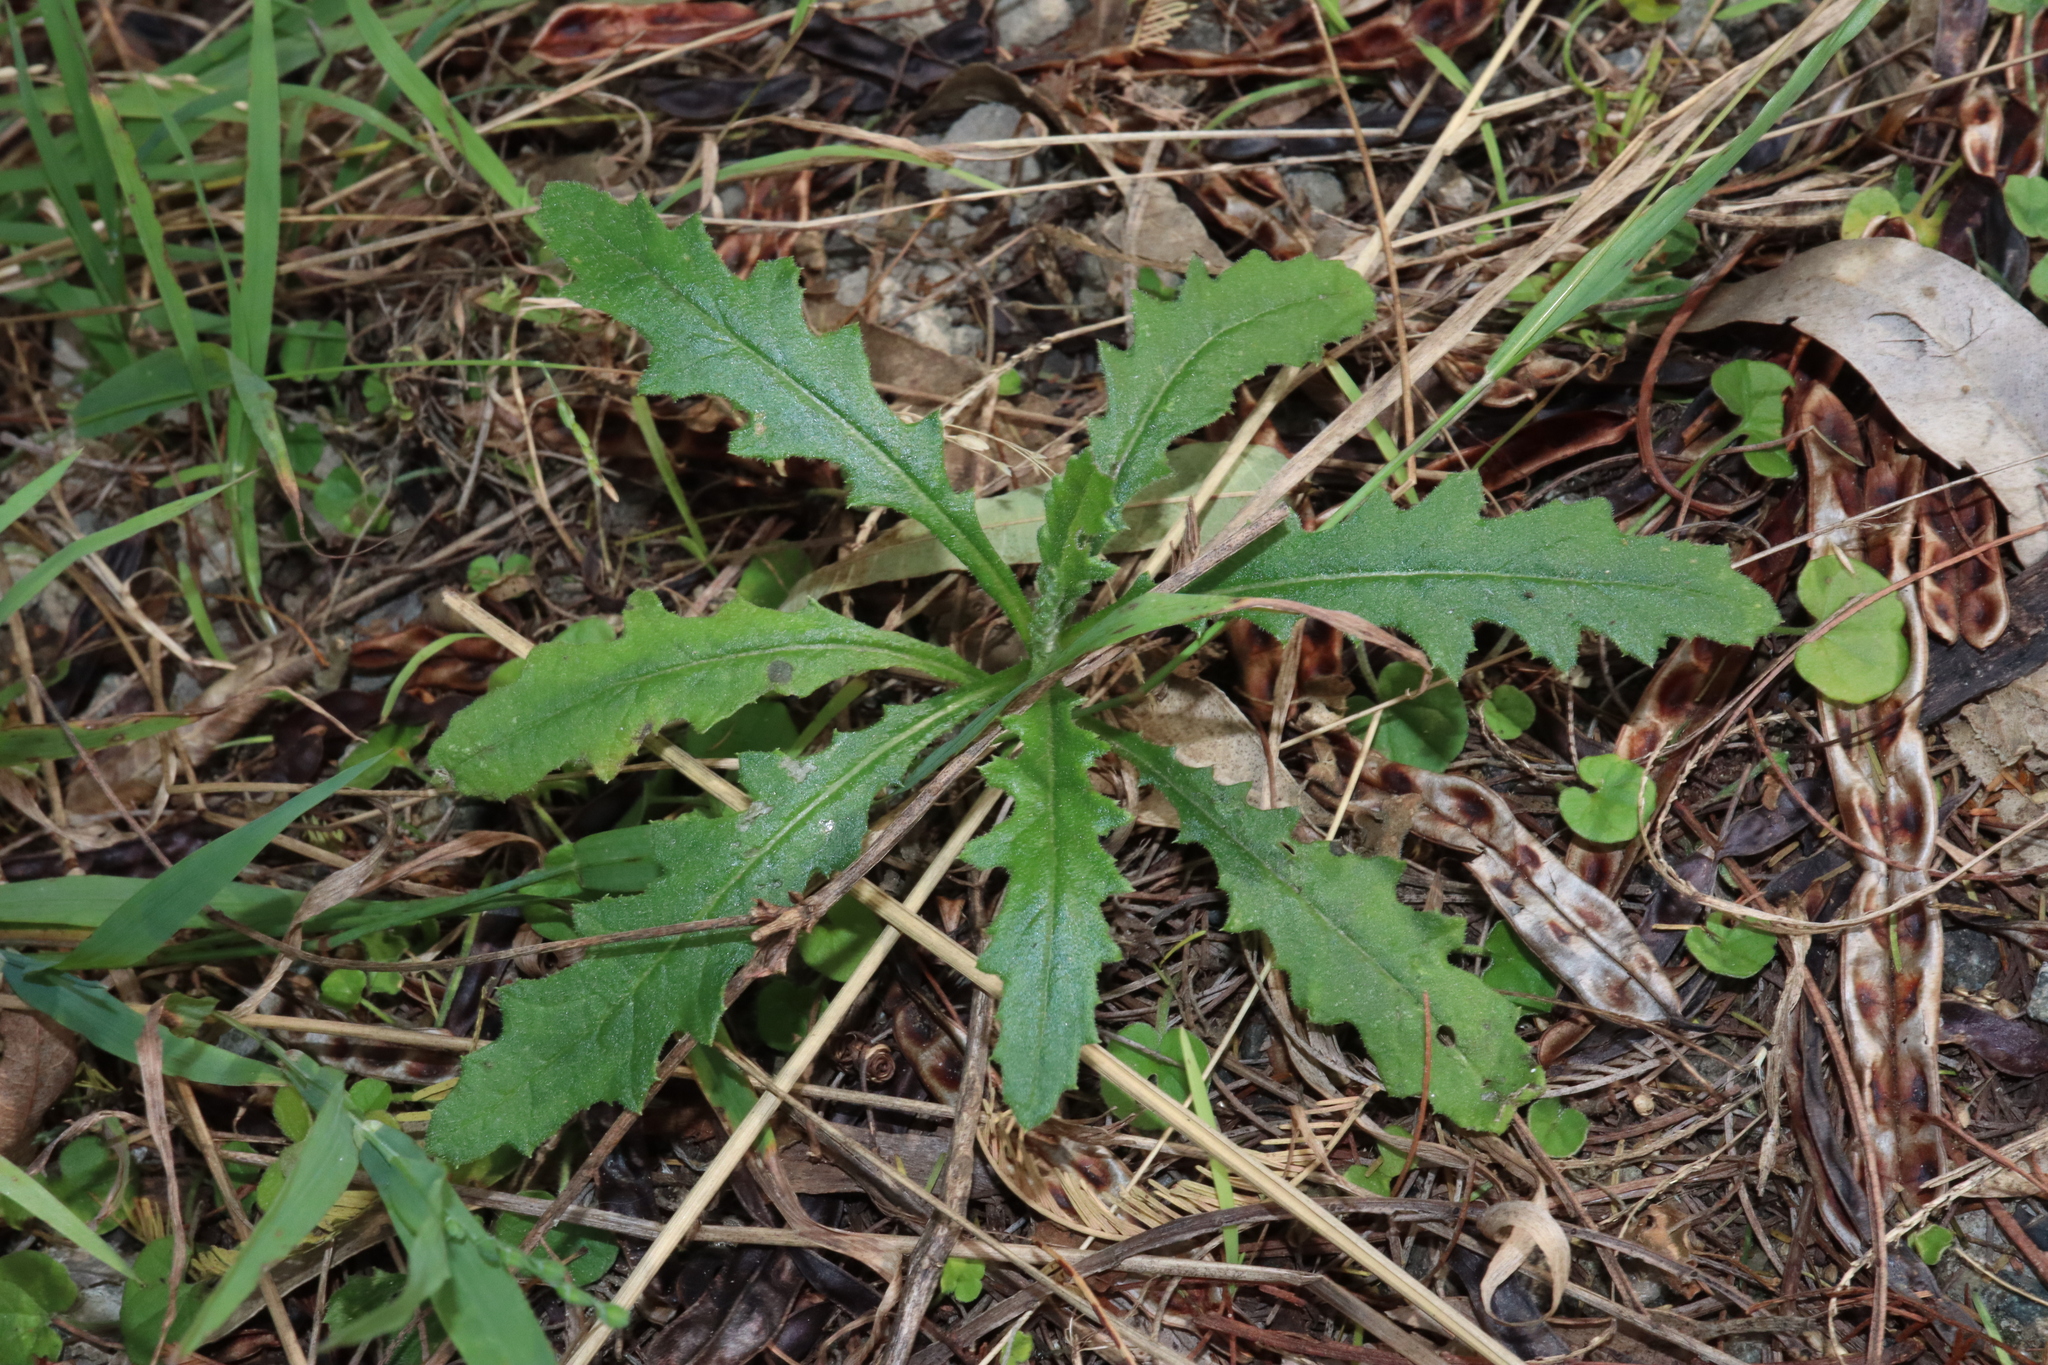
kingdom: Plantae
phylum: Tracheophyta
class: Magnoliopsida
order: Asterales
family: Asteraceae
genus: Senecio
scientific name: Senecio hispidulus
